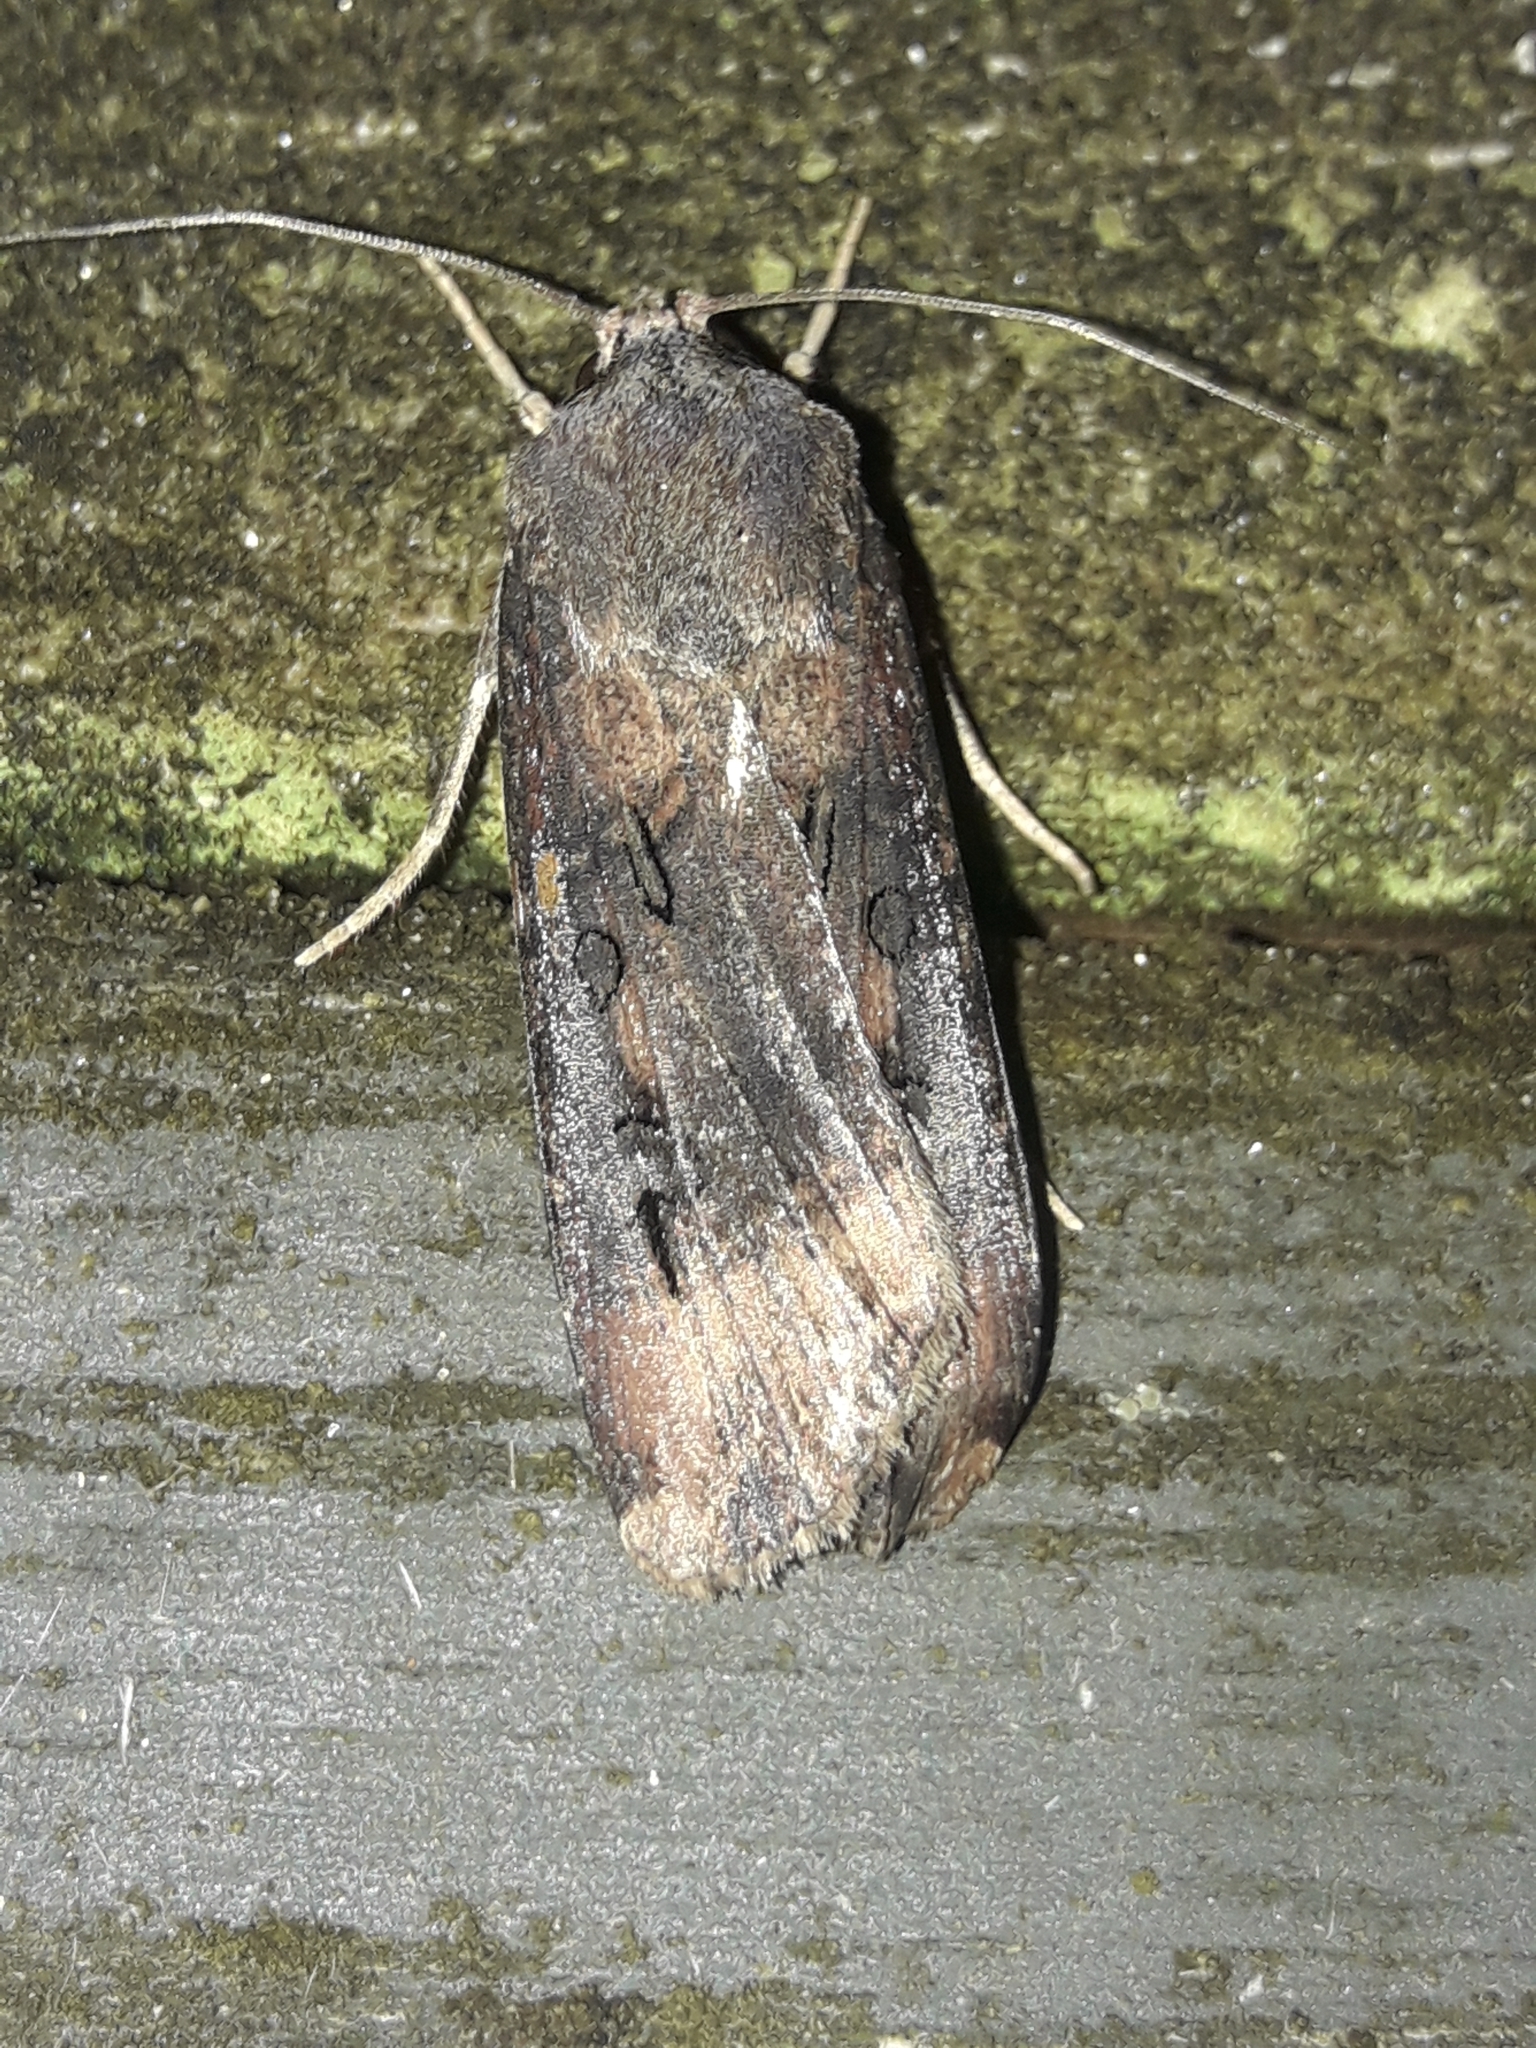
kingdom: Animalia
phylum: Arthropoda
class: Insecta
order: Lepidoptera
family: Noctuidae
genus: Agrotis
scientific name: Agrotis ipsilon
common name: Dark sword-grass
